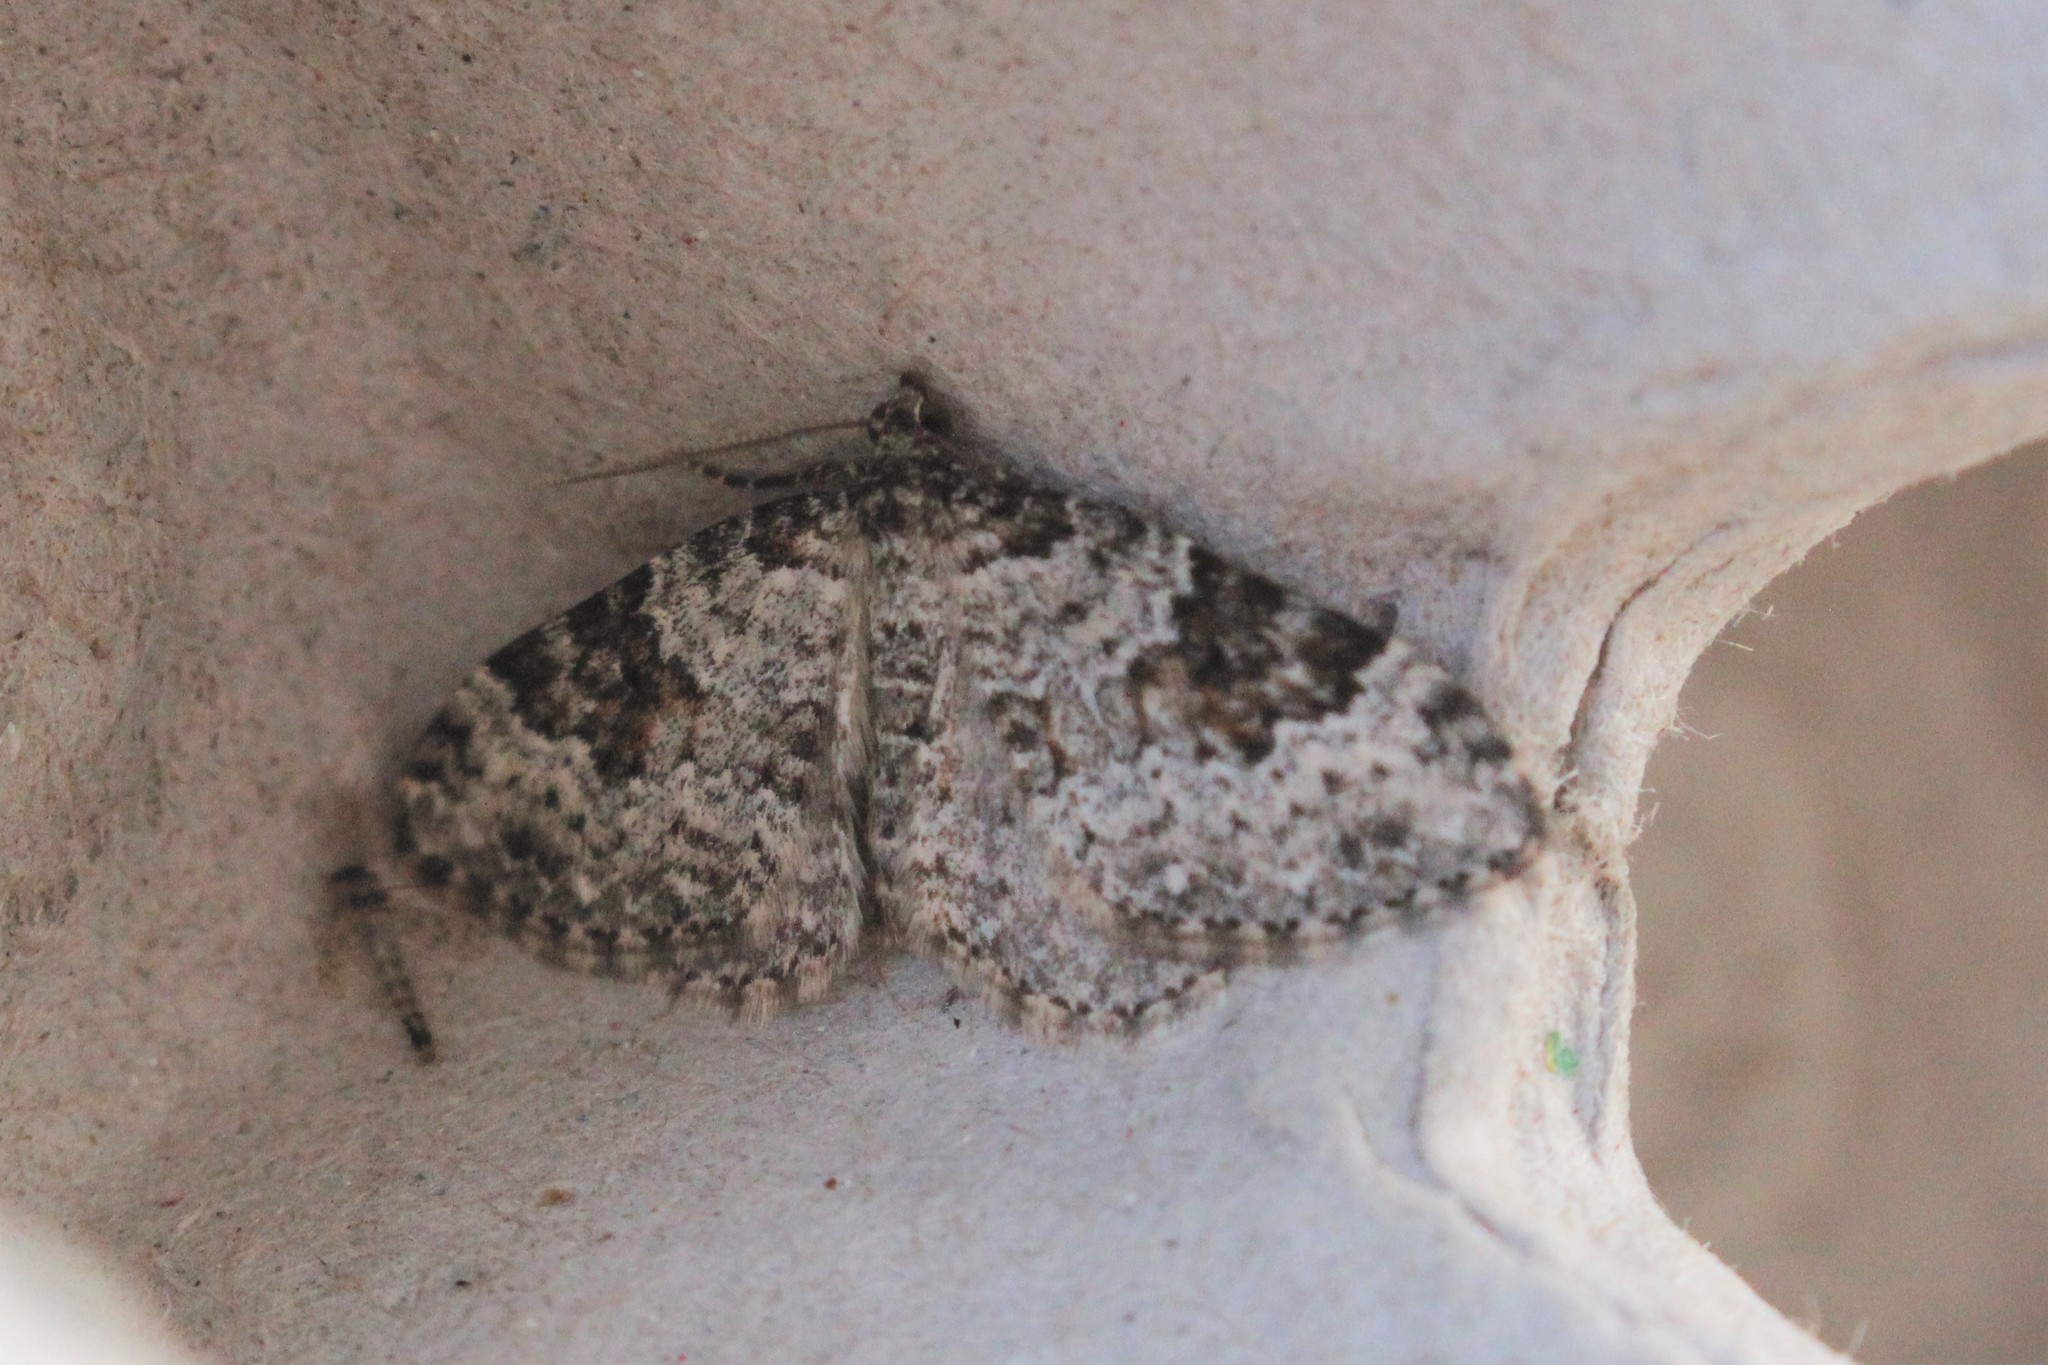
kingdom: Animalia
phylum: Arthropoda
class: Insecta
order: Lepidoptera
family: Geometridae
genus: Xanthorhoe
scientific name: Xanthorhoe iduata
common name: Broken-banded carpet
